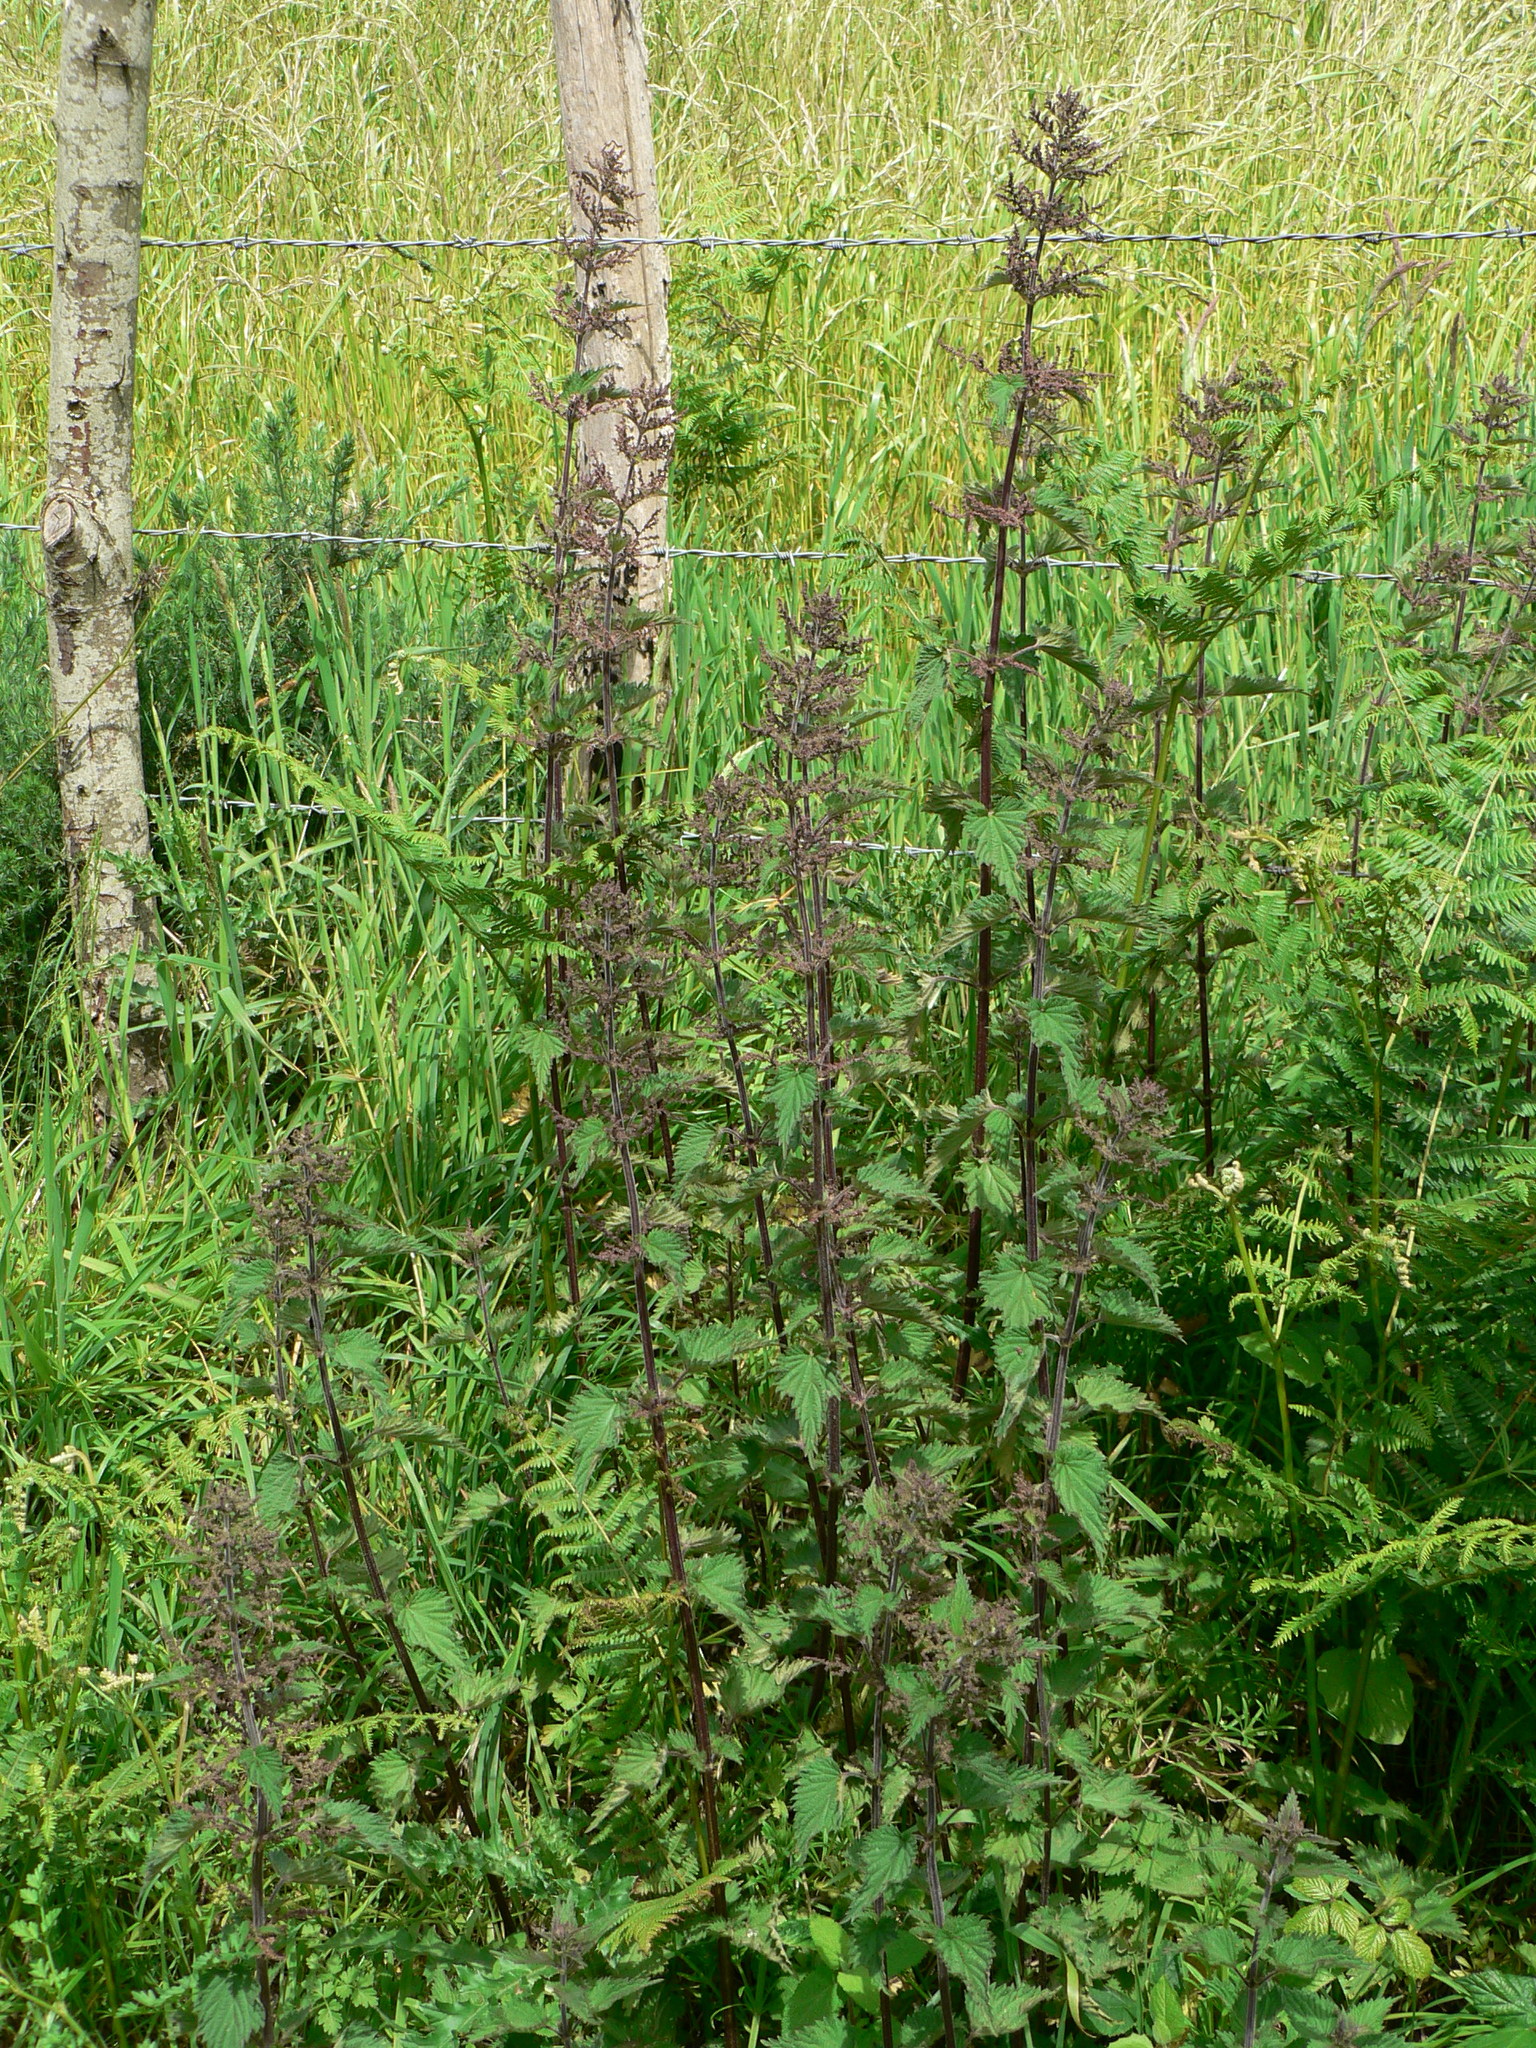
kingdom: Plantae
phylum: Tracheophyta
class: Magnoliopsida
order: Rosales
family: Urticaceae
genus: Urtica
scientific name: Urtica dioica
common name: Common nettle
